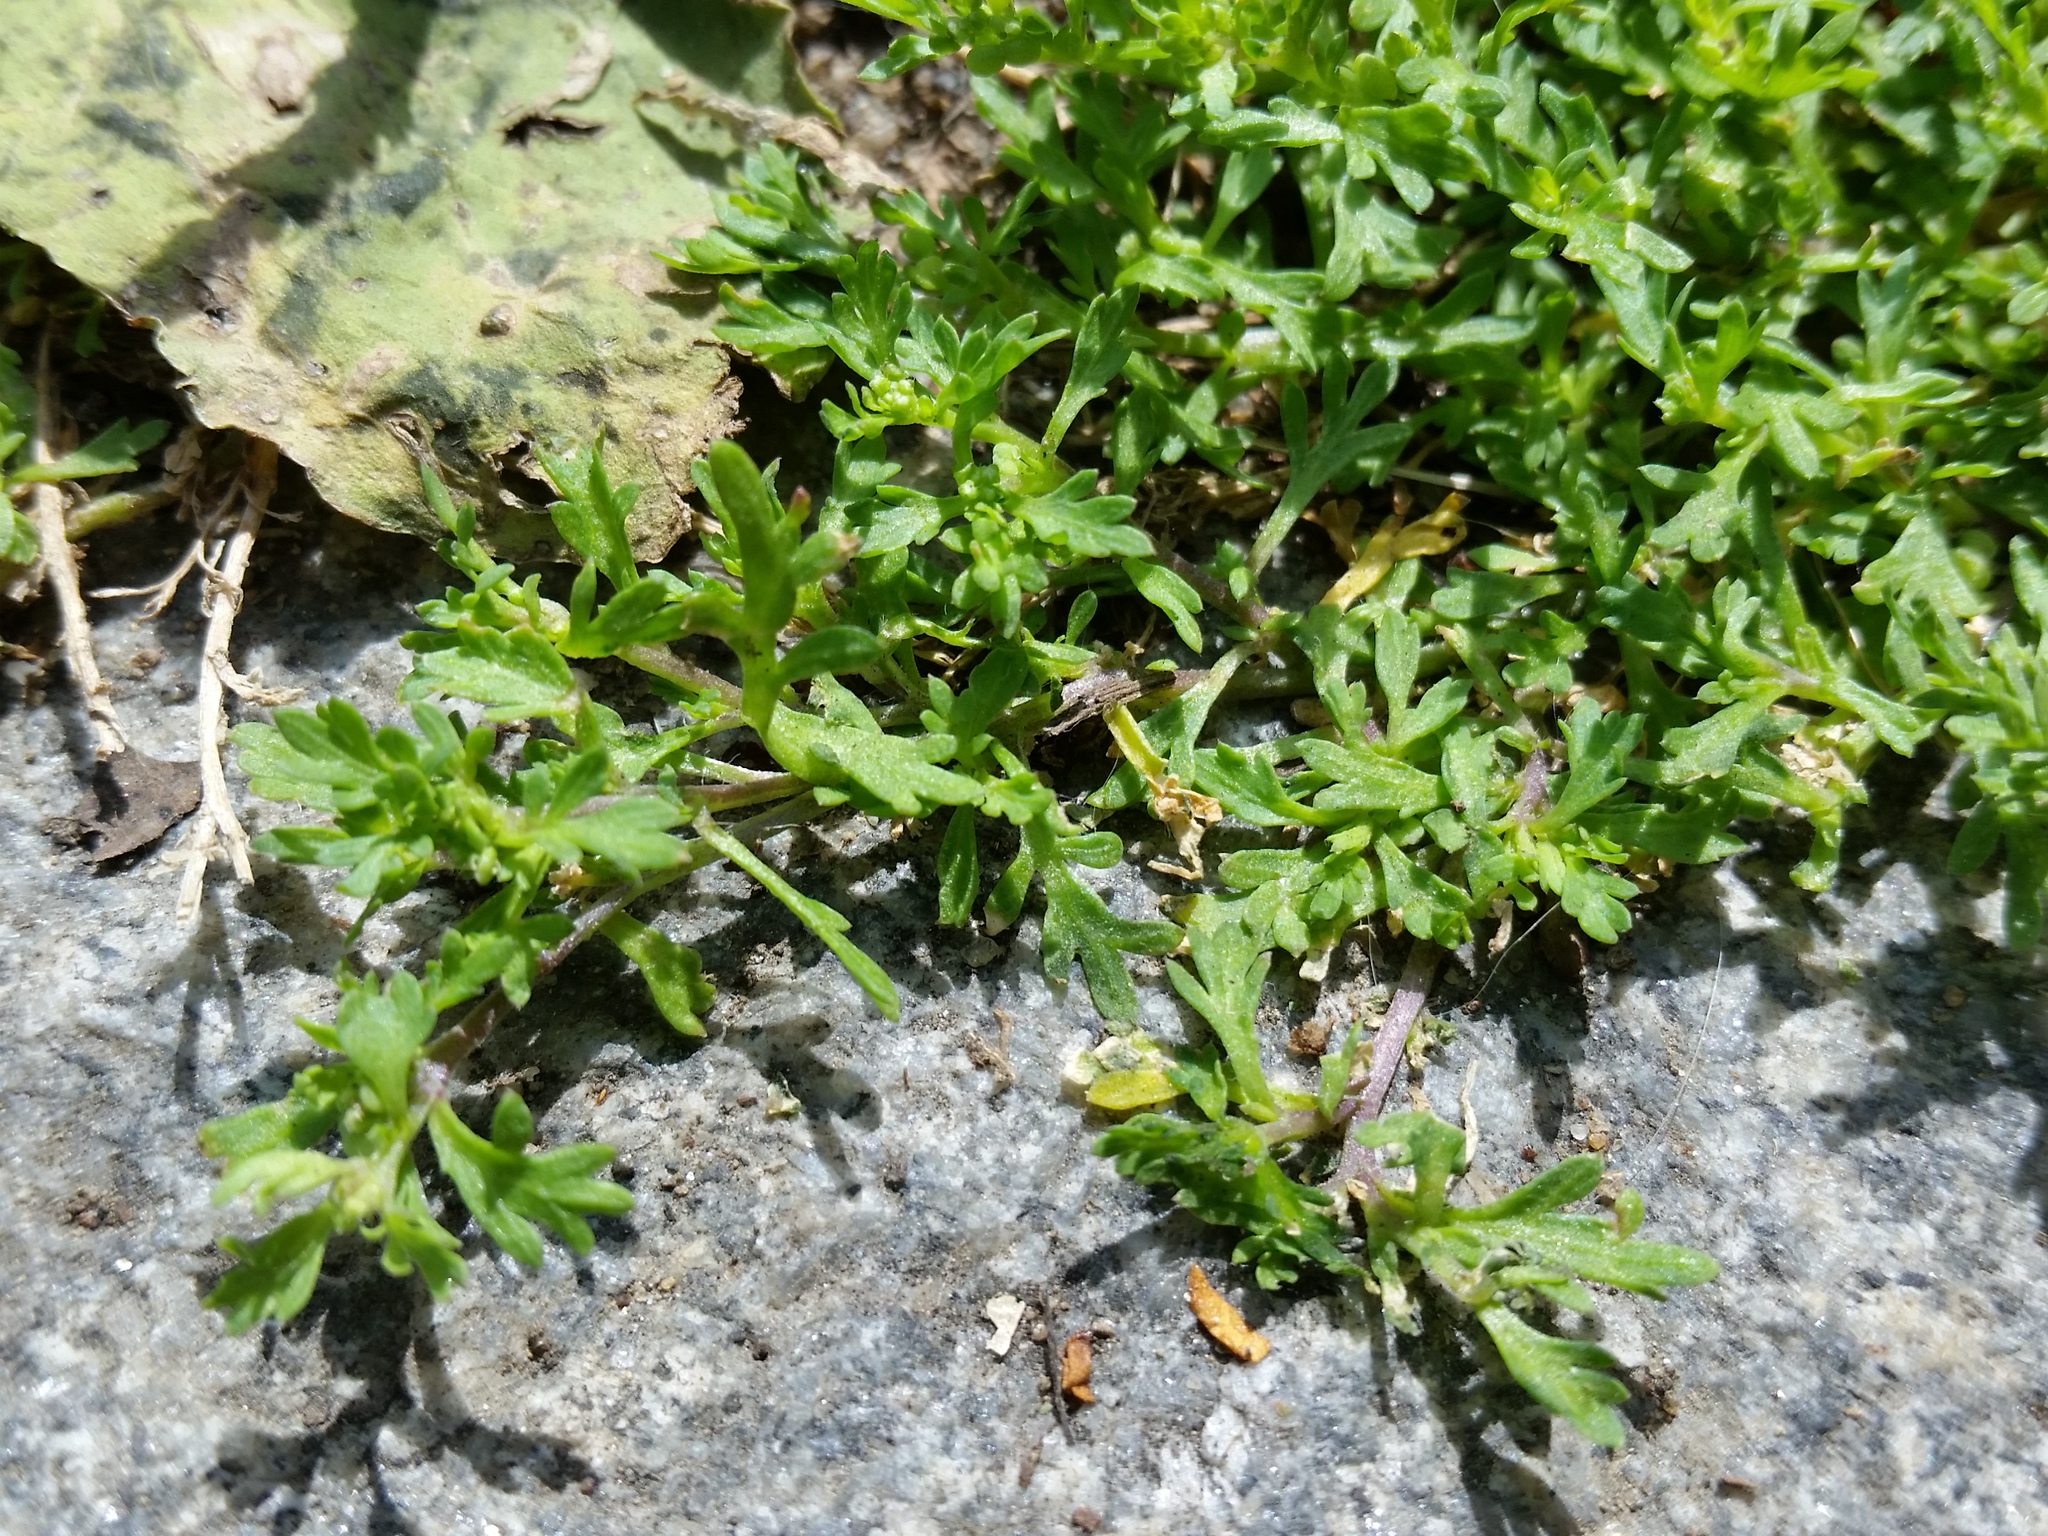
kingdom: Plantae
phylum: Tracheophyta
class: Magnoliopsida
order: Brassicales
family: Brassicaceae
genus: Lepidium
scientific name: Lepidium didymum
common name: Lesser swinecress
